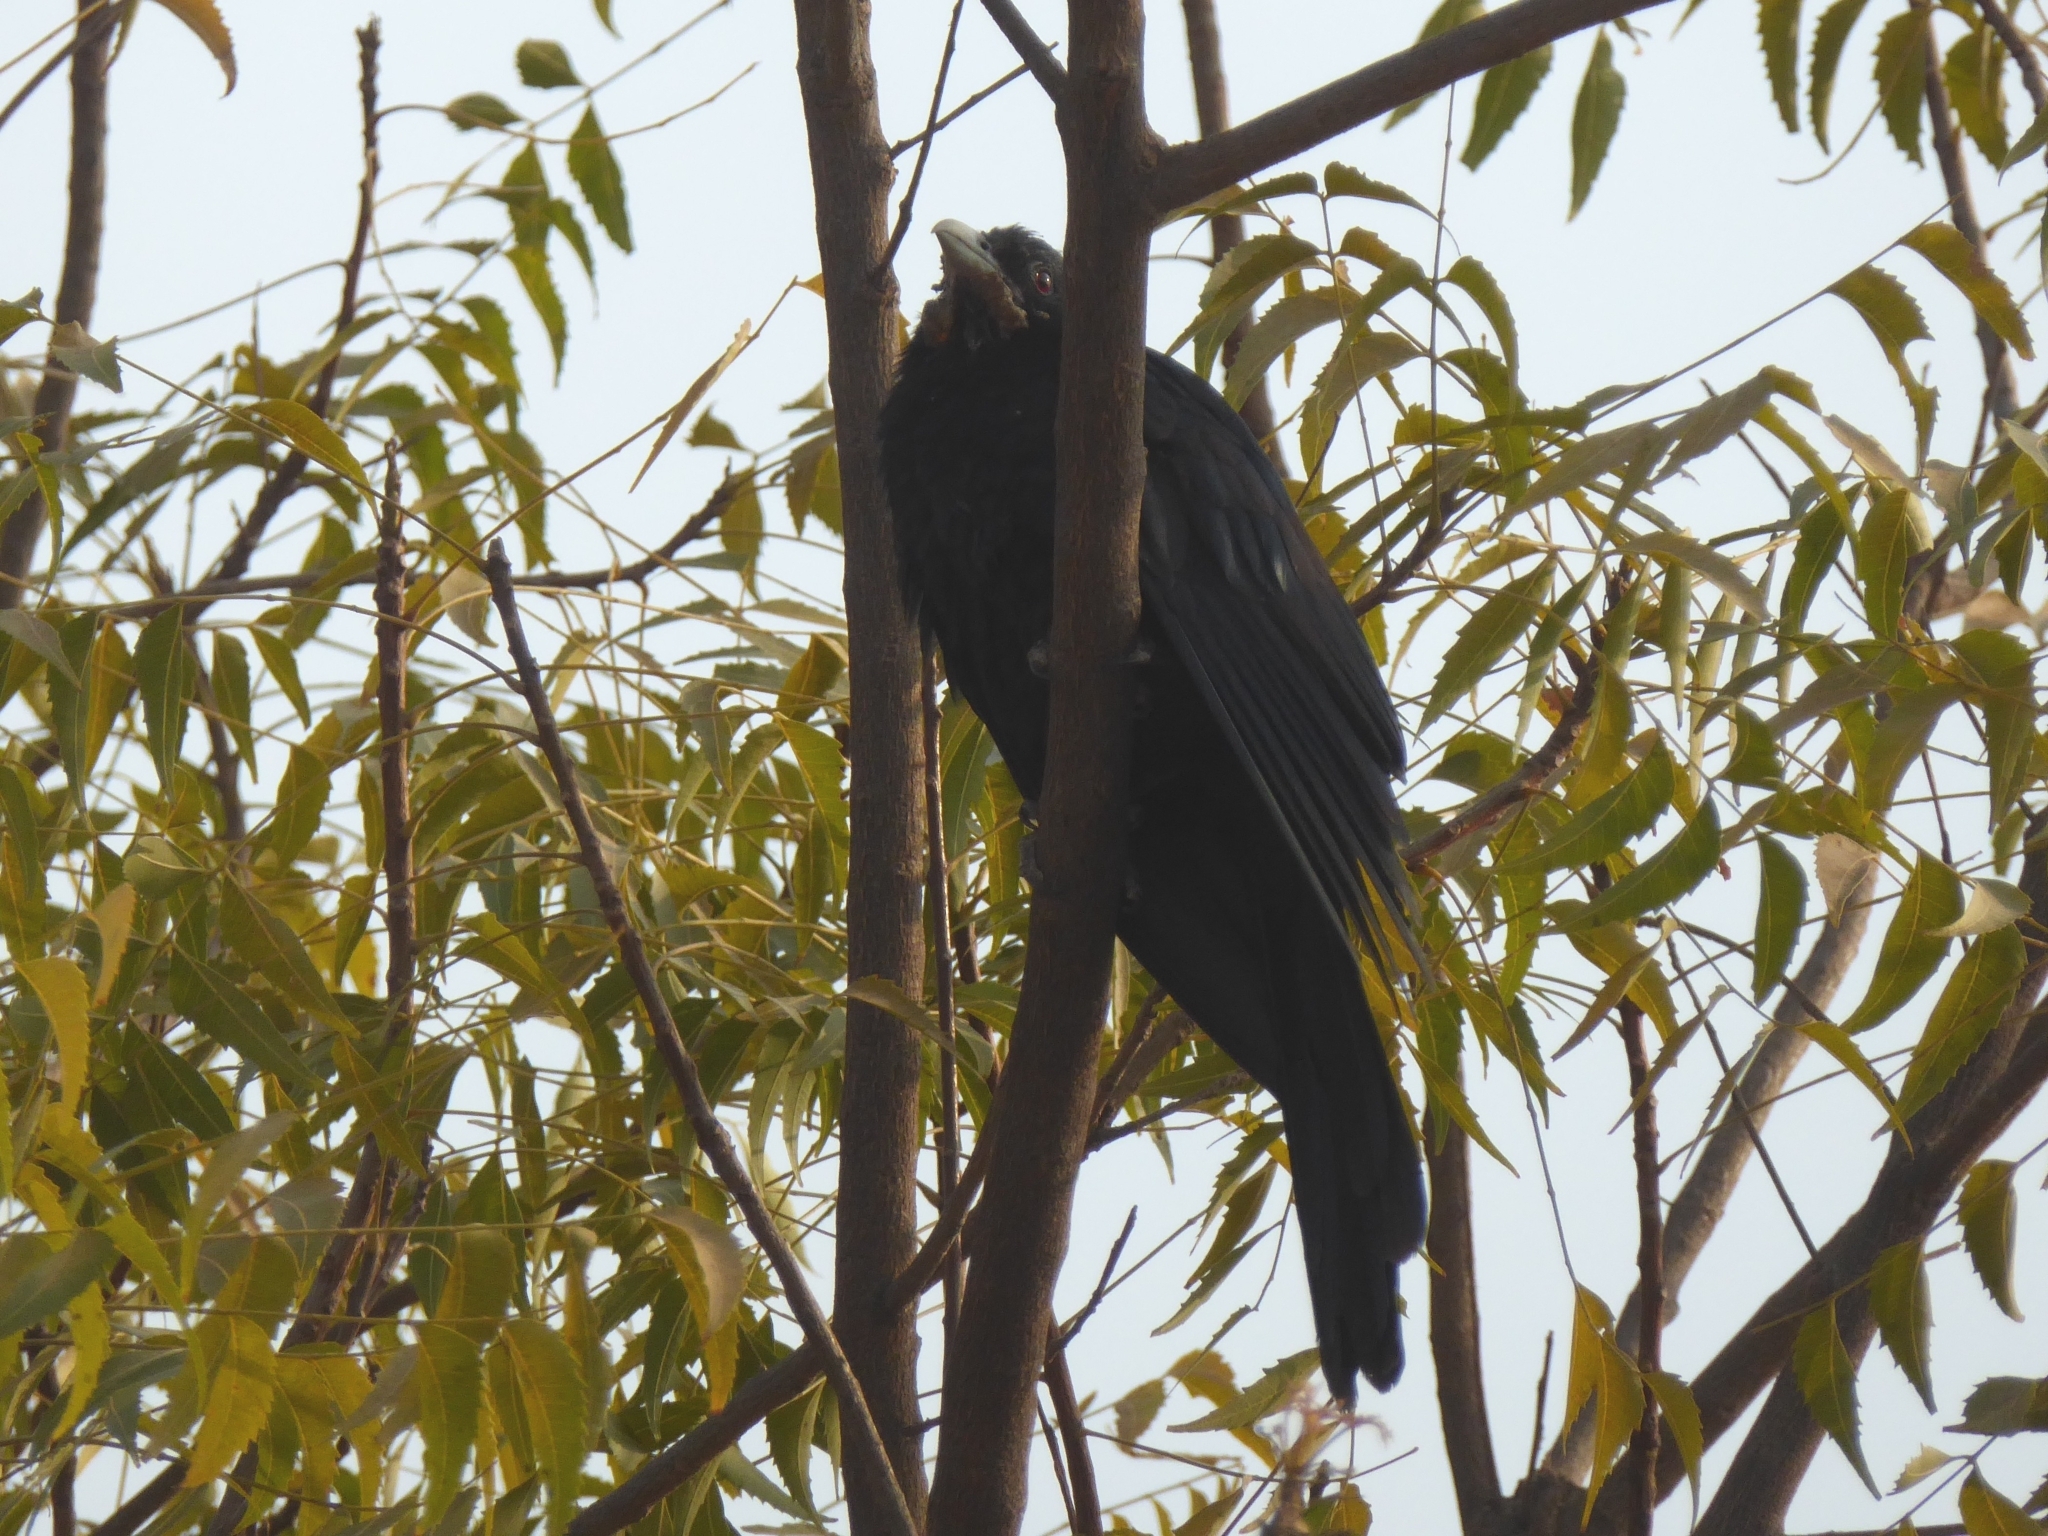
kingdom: Animalia
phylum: Chordata
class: Aves
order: Cuculiformes
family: Cuculidae
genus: Eudynamys
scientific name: Eudynamys scolopaceus
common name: Asian koel
